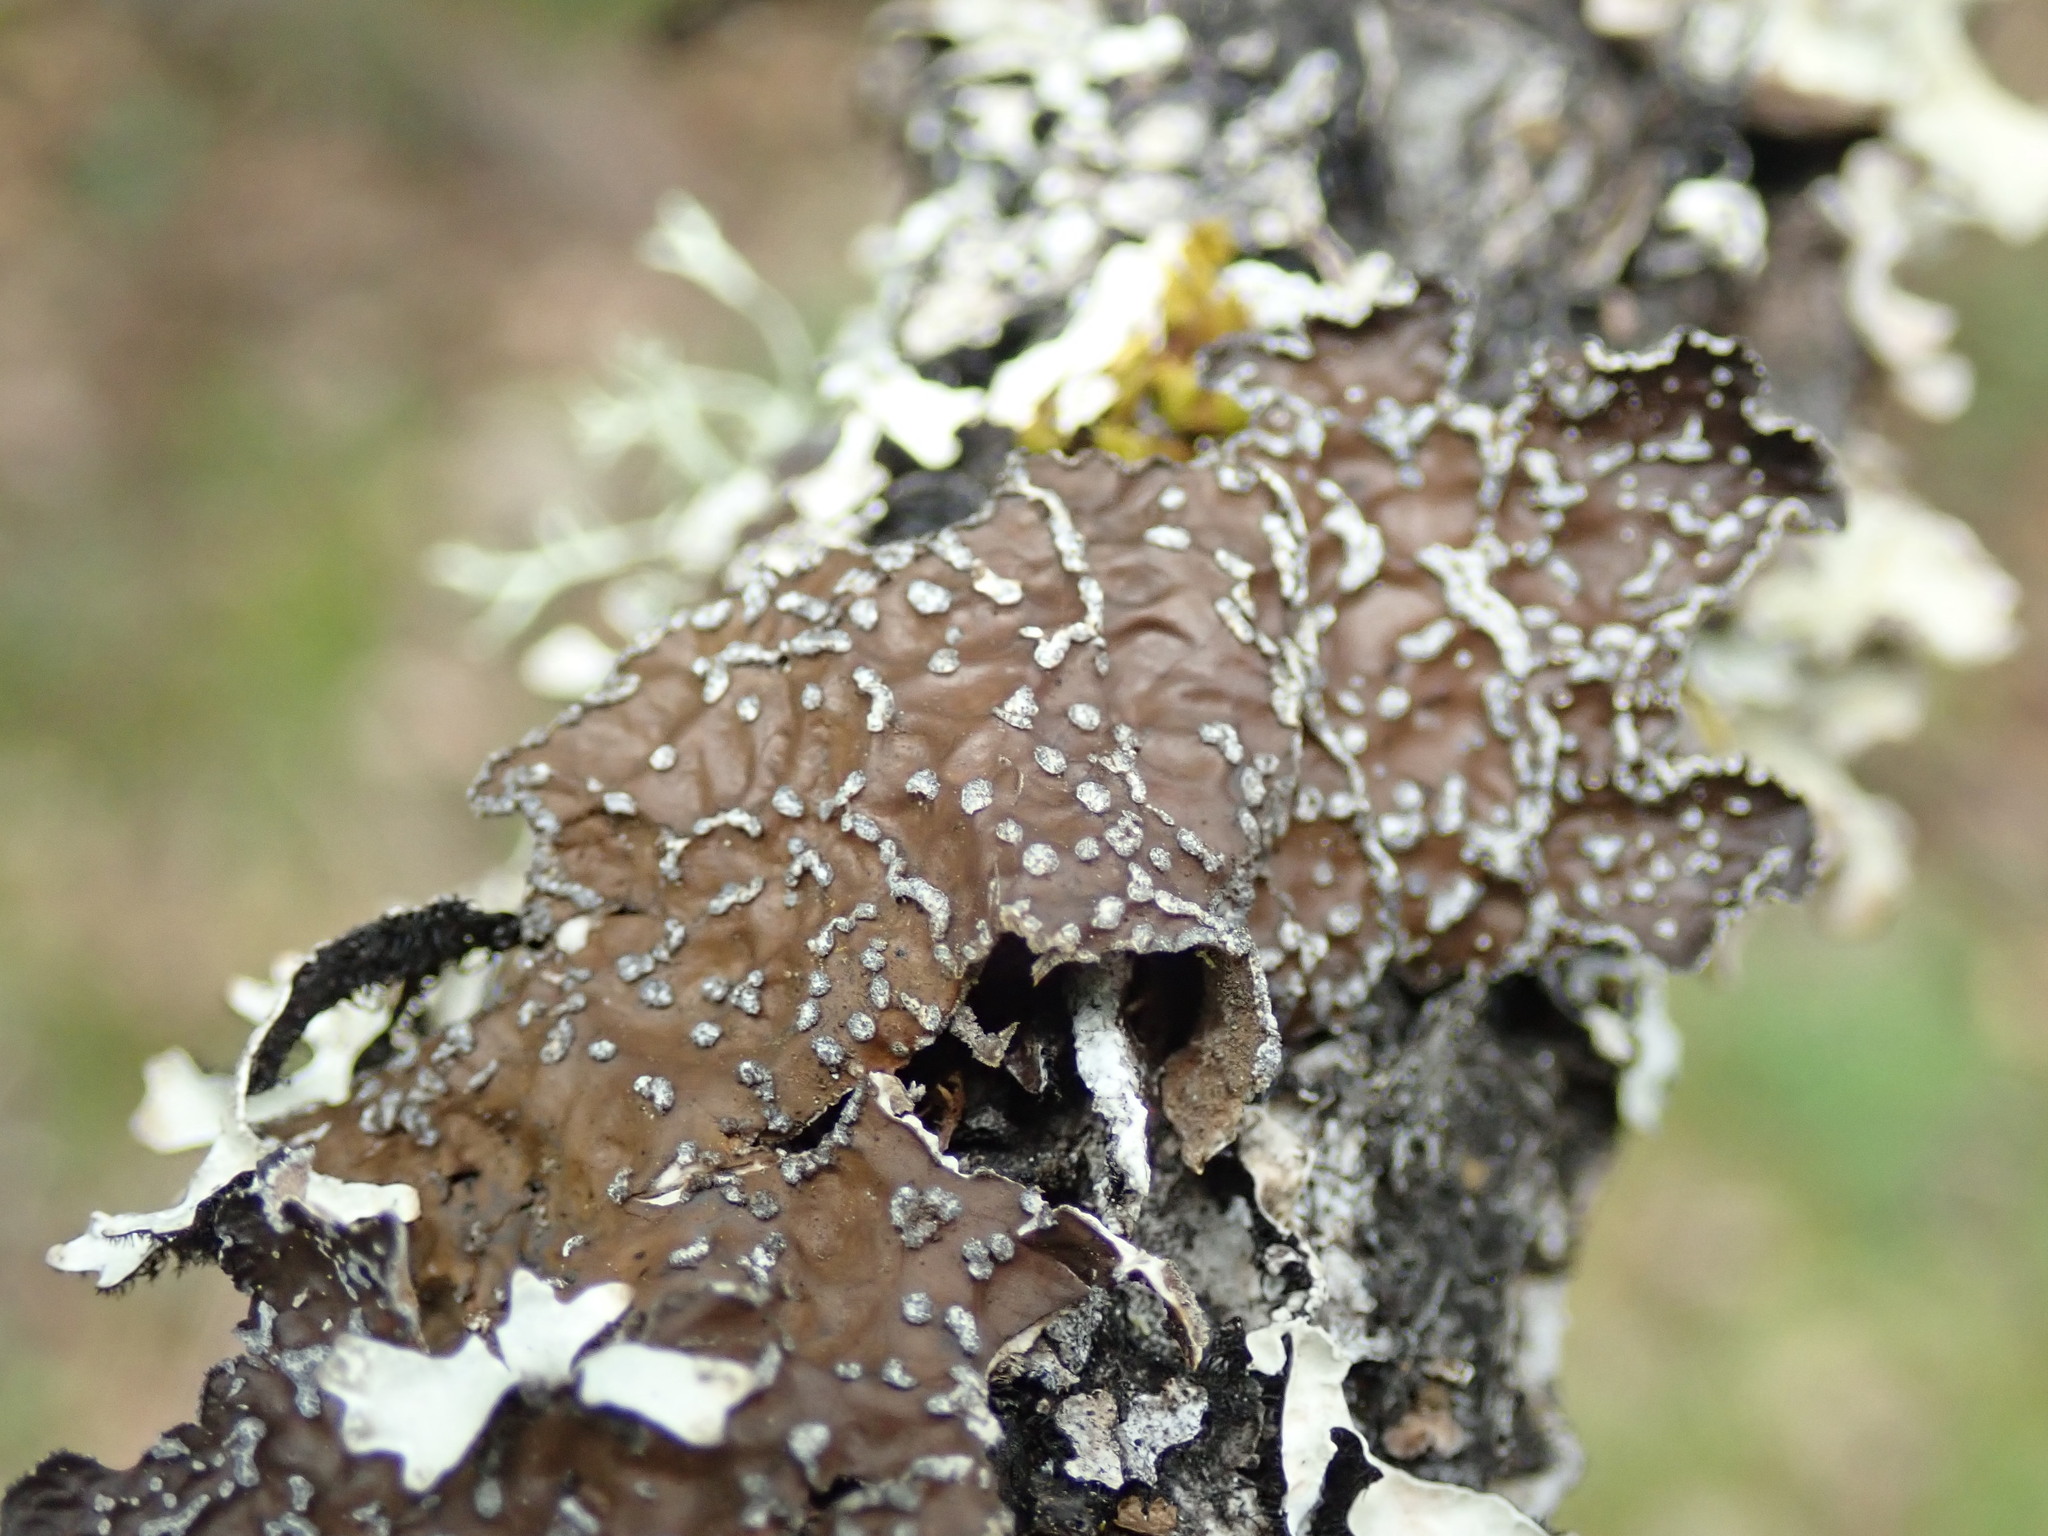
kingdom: Fungi
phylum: Ascomycota
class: Lecanoromycetes
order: Peltigerales
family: Lobariaceae
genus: Lobaria
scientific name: Lobaria anomala
